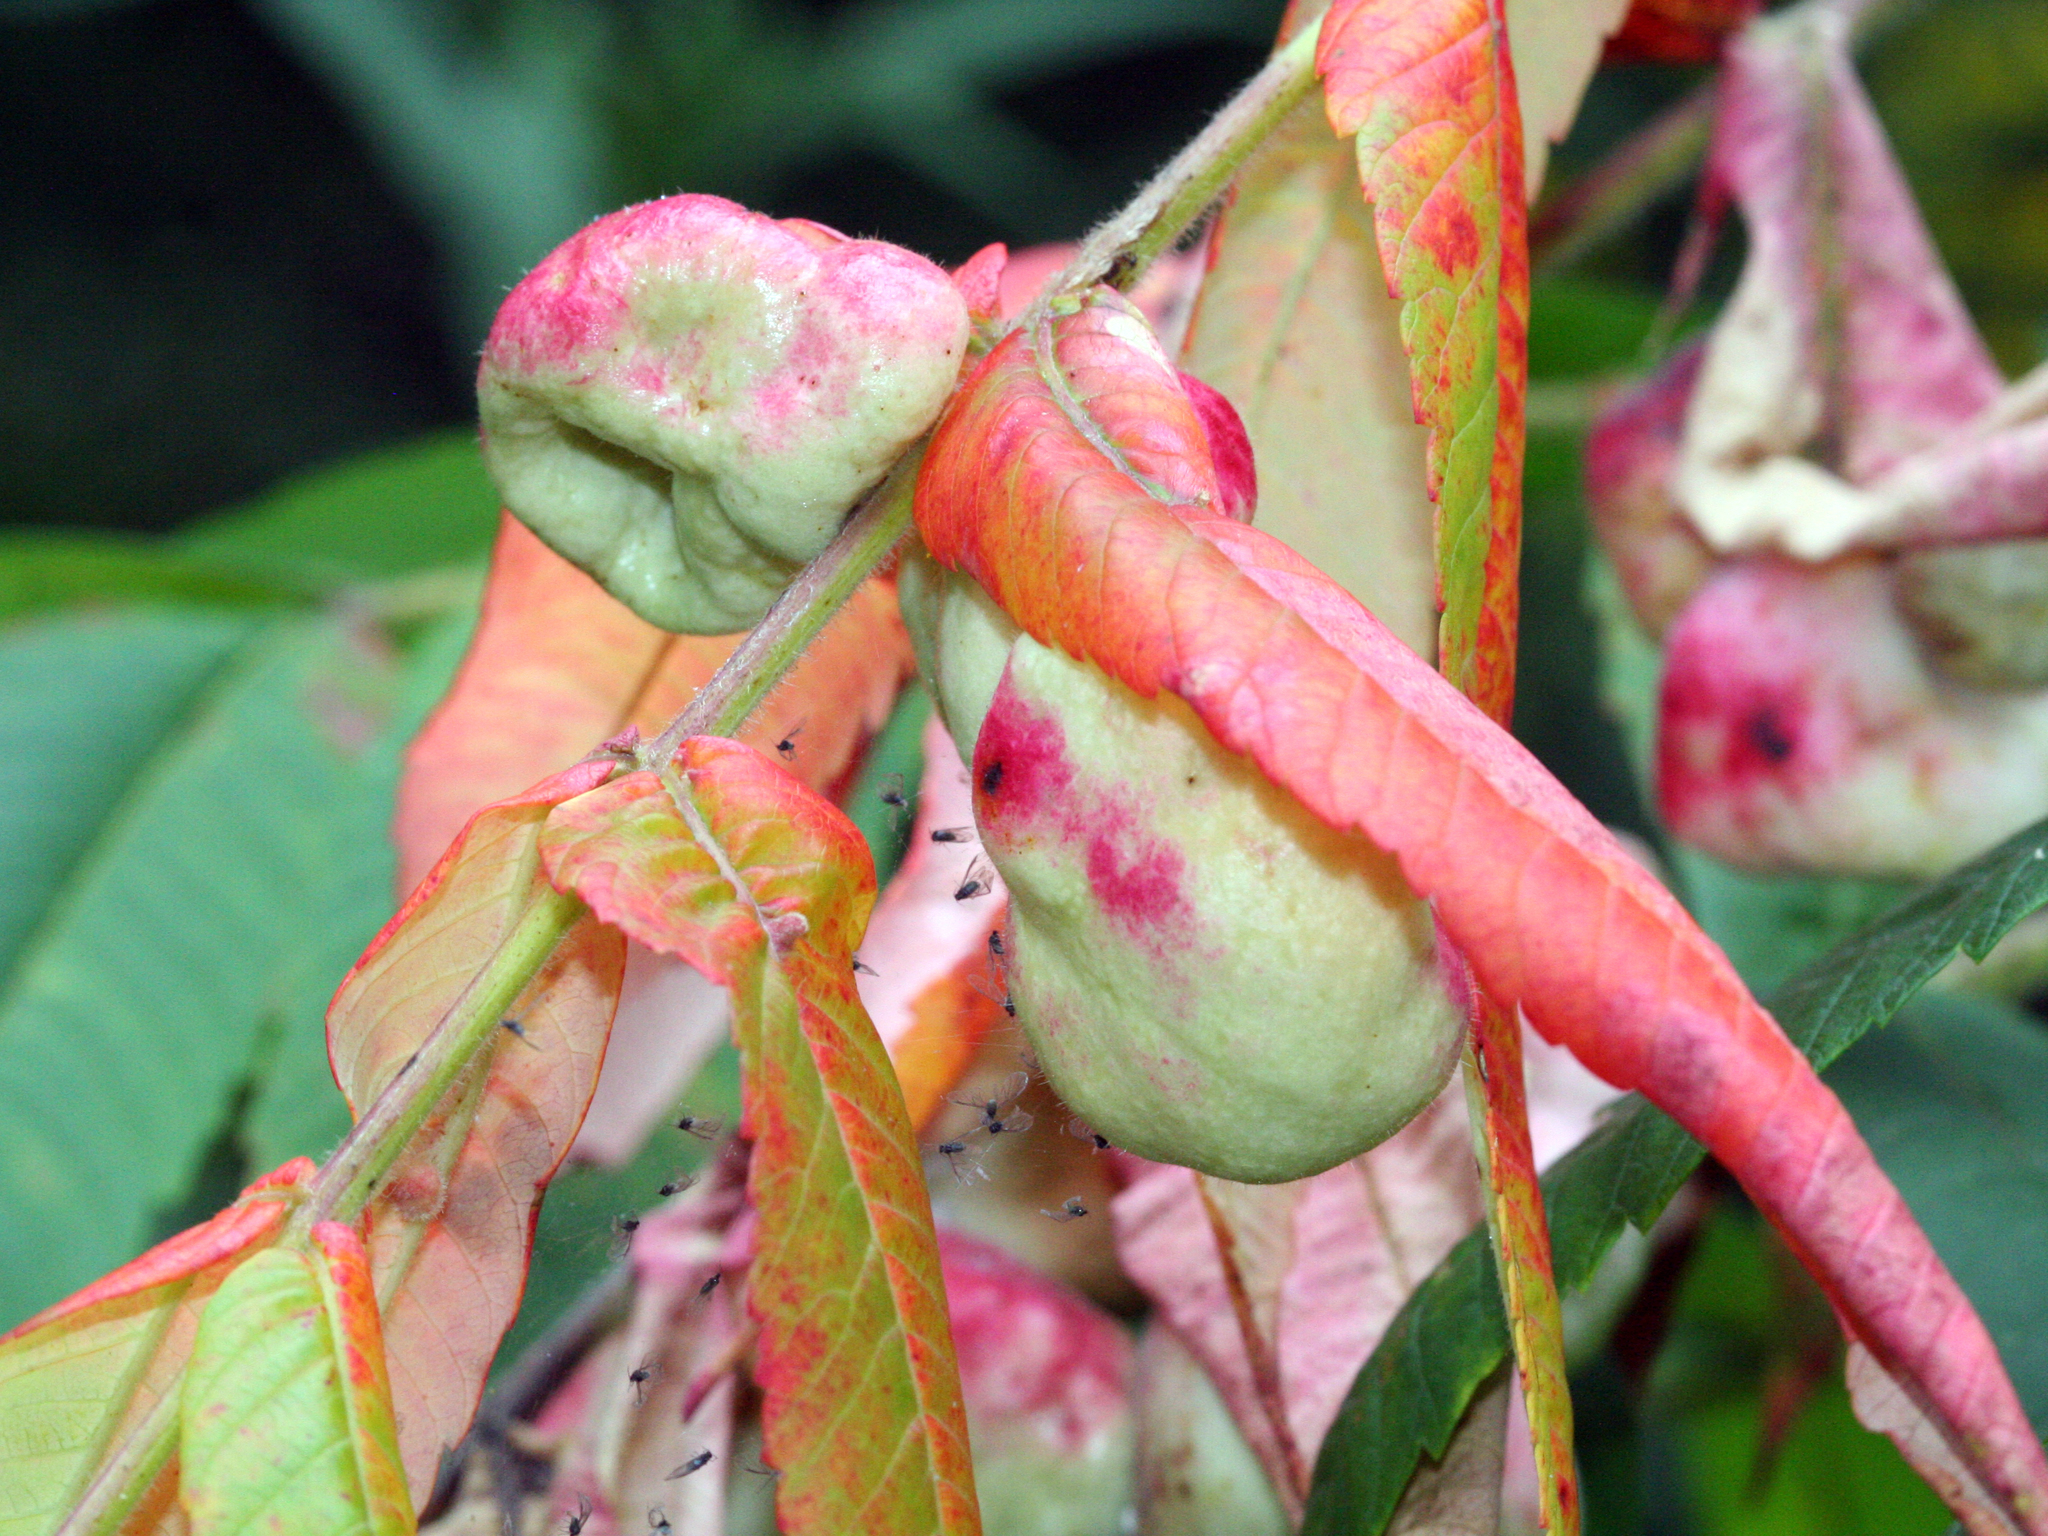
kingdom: Animalia
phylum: Arthropoda
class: Insecta
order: Hemiptera
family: Aphididae
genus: Melaphis
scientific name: Melaphis rhois
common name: Sumac gall aphid
